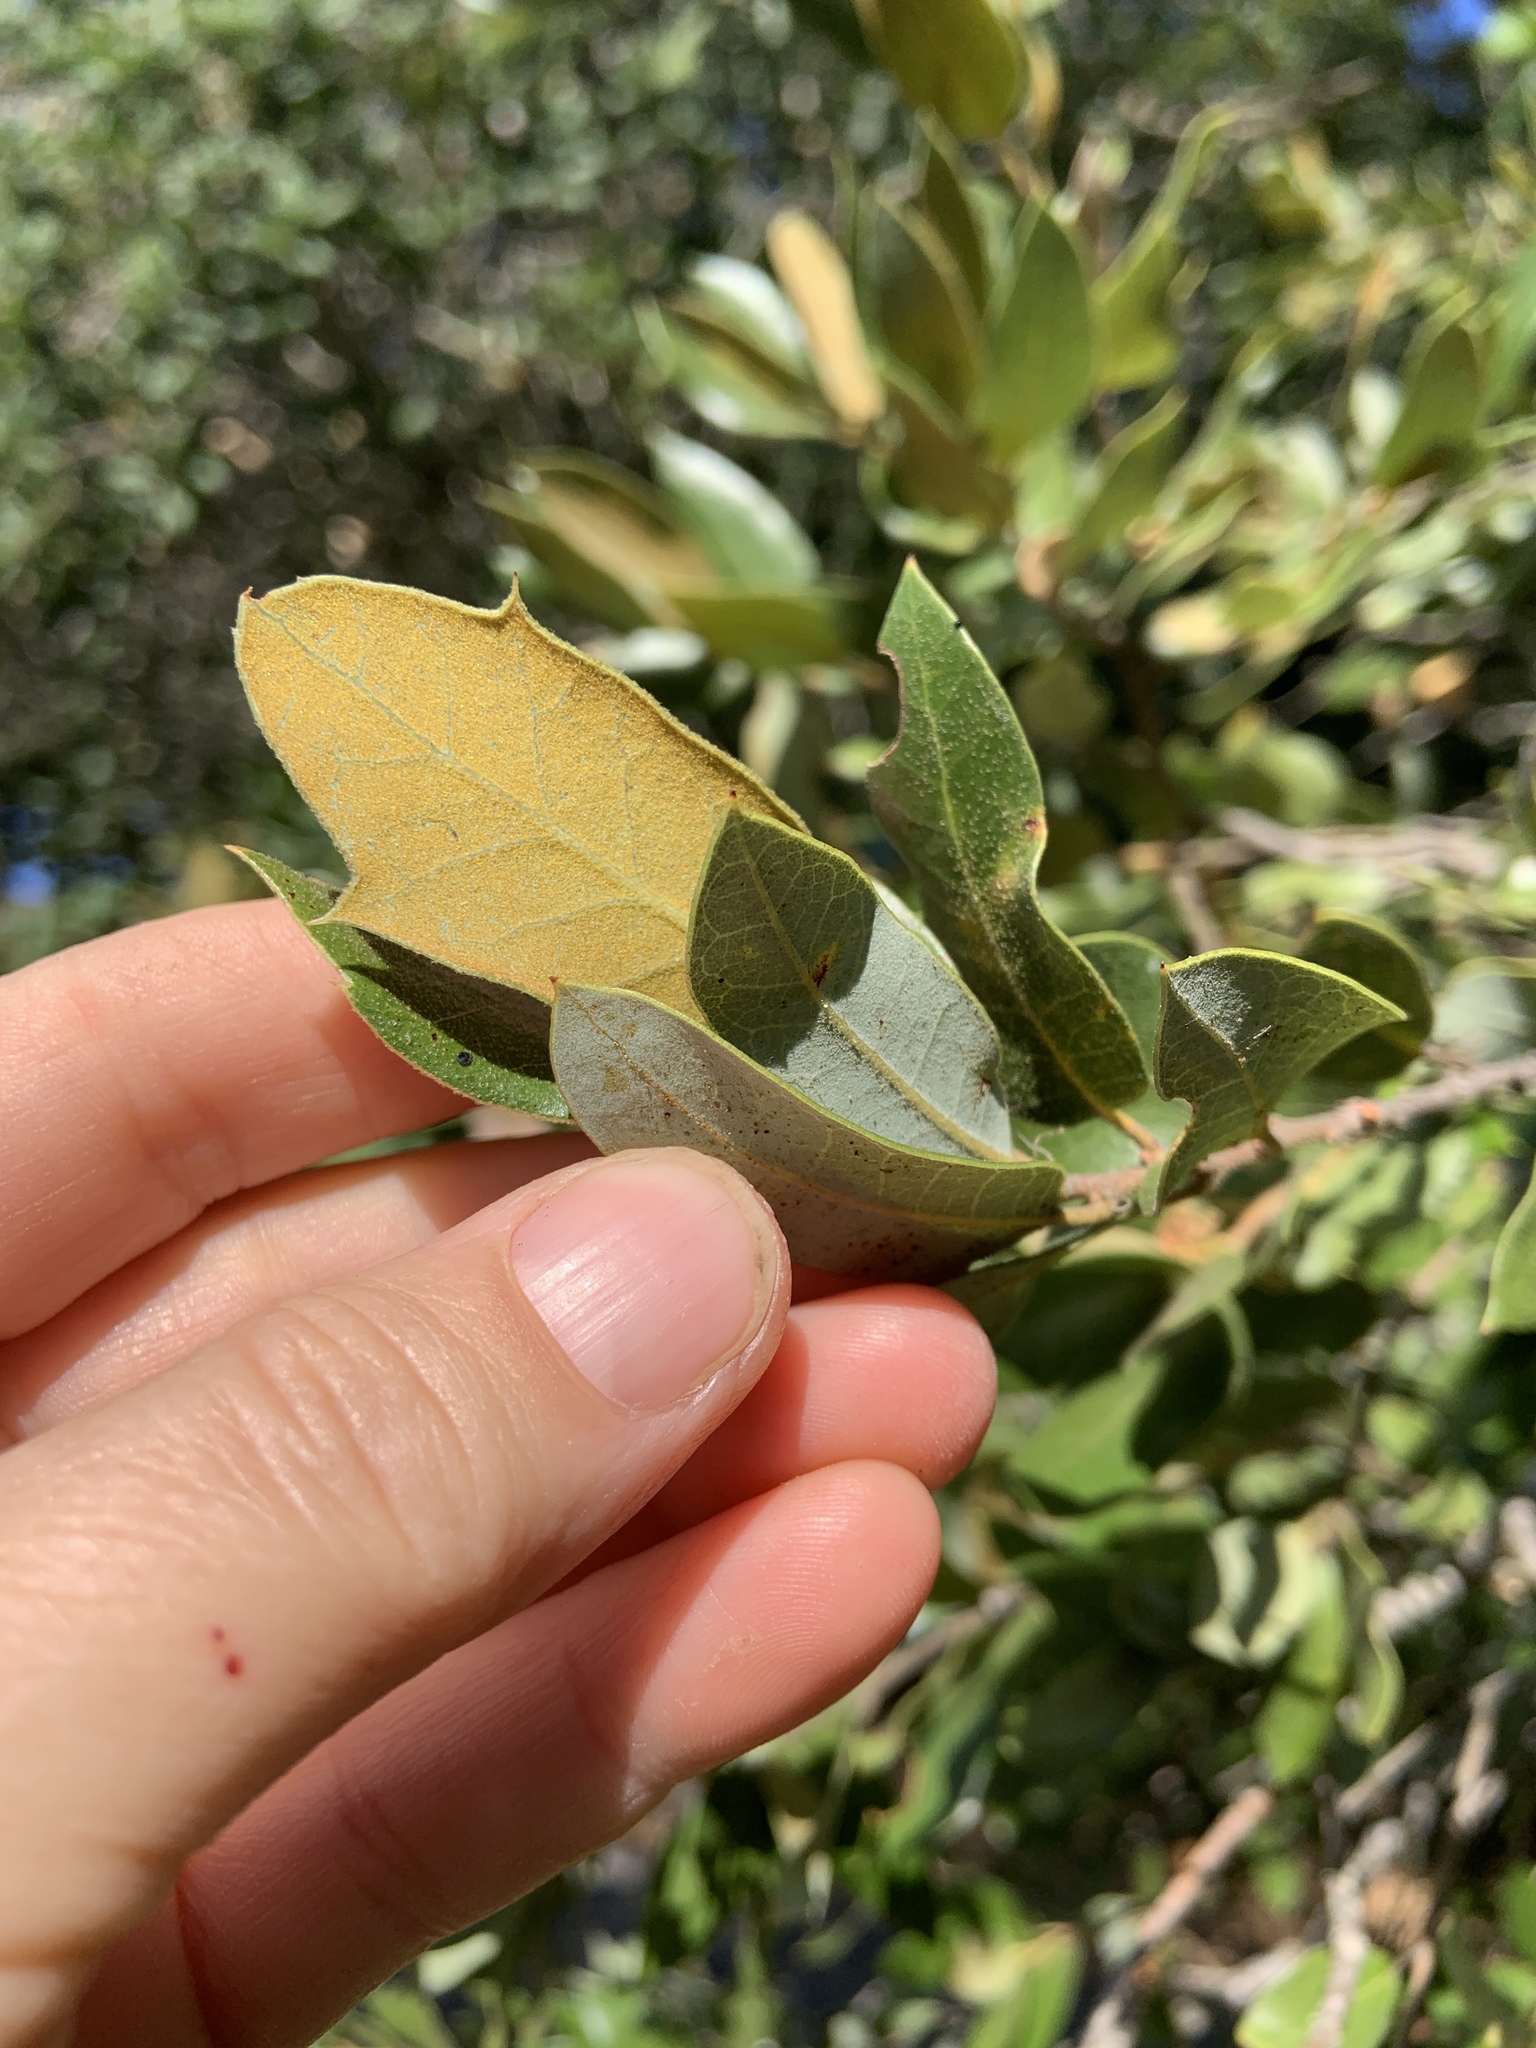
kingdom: Plantae
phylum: Tracheophyta
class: Magnoliopsida
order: Fagales
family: Fagaceae
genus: Quercus
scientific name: Quercus chrysolepis
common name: Canyon live oak
